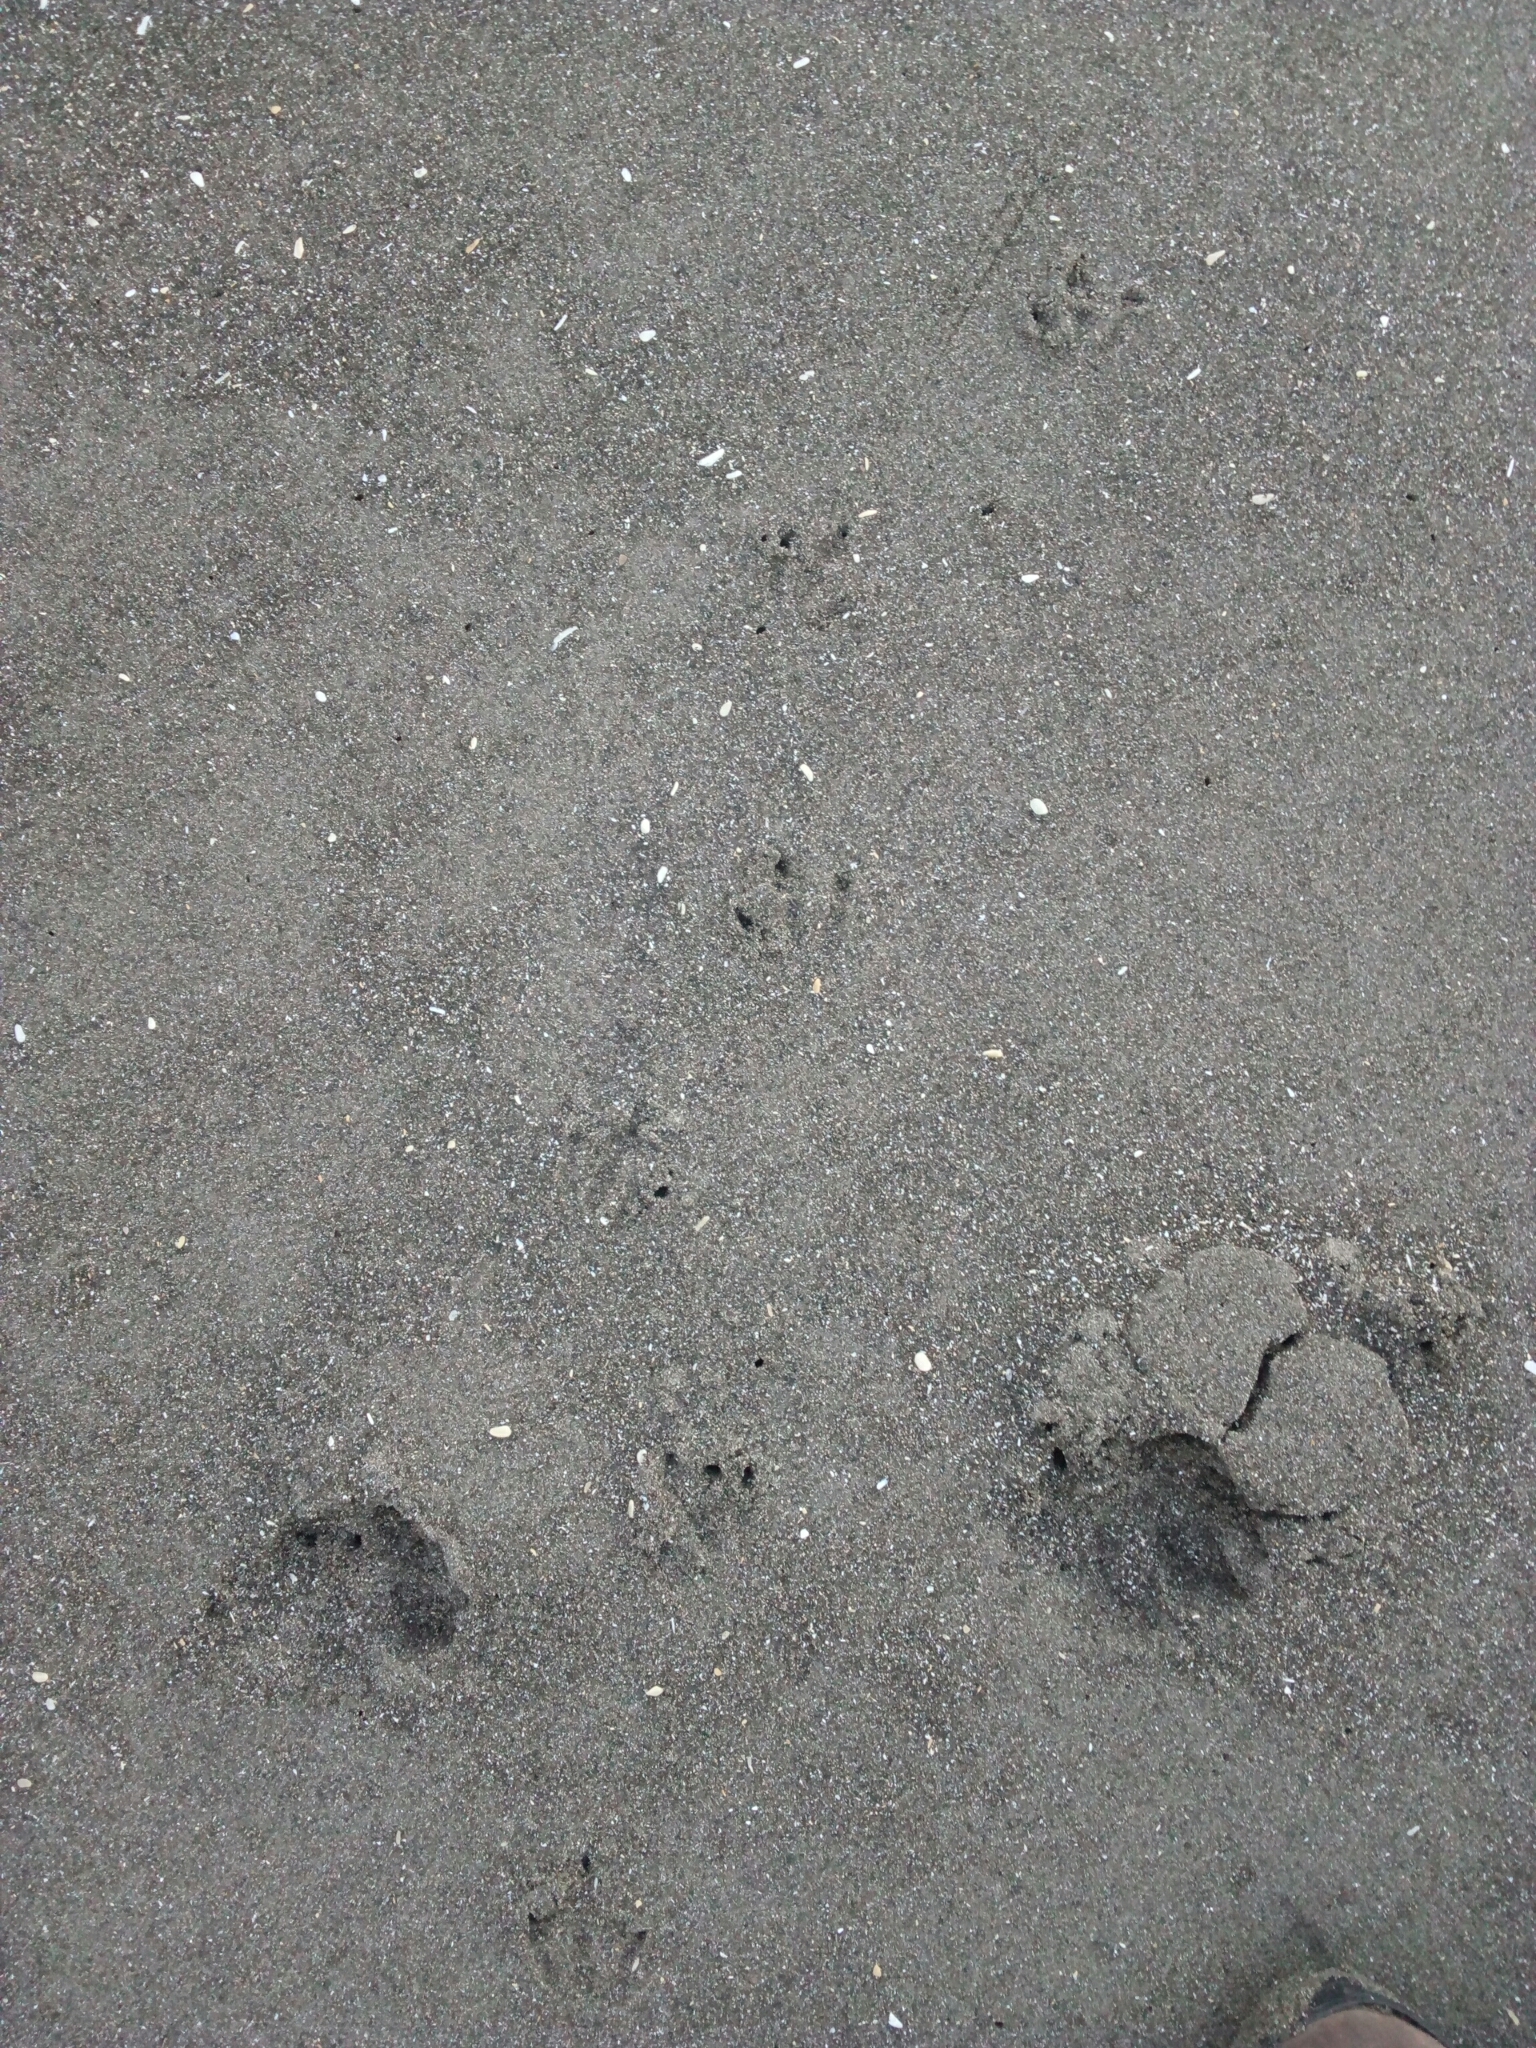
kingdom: Animalia
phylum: Chordata
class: Aves
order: Sphenisciformes
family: Spheniscidae
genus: Eudyptula
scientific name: Eudyptula minor
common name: Little penguin
